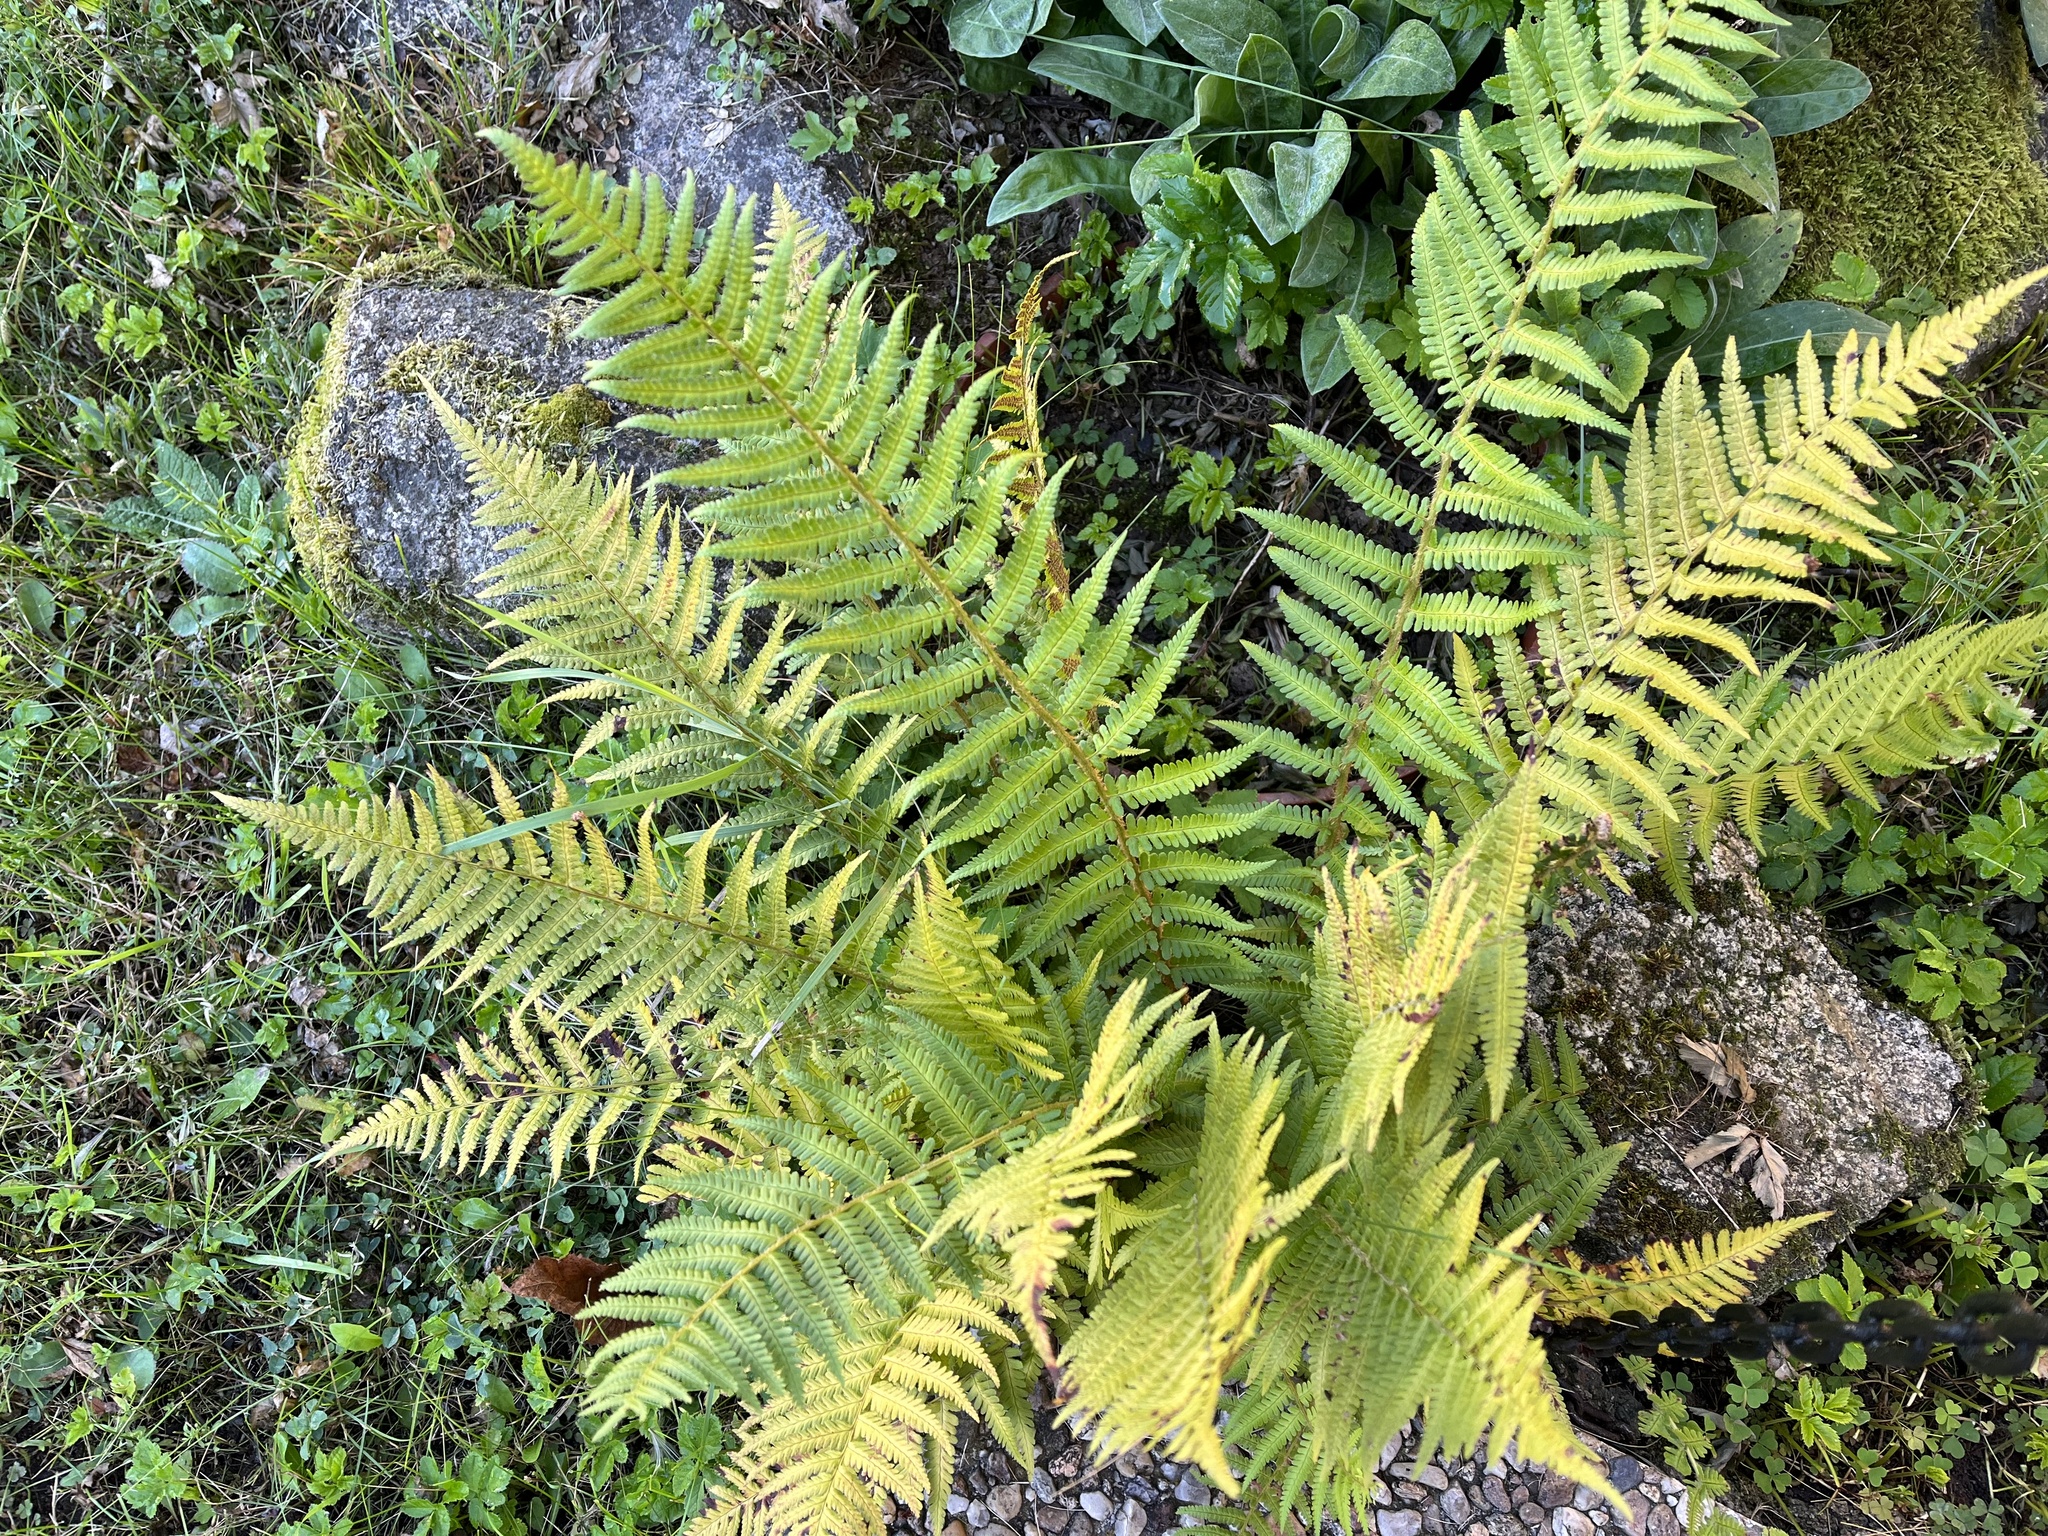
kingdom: Plantae
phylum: Tracheophyta
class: Polypodiopsida
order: Polypodiales
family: Dryopteridaceae
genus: Dryopteris
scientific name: Dryopteris filix-mas
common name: Male fern
